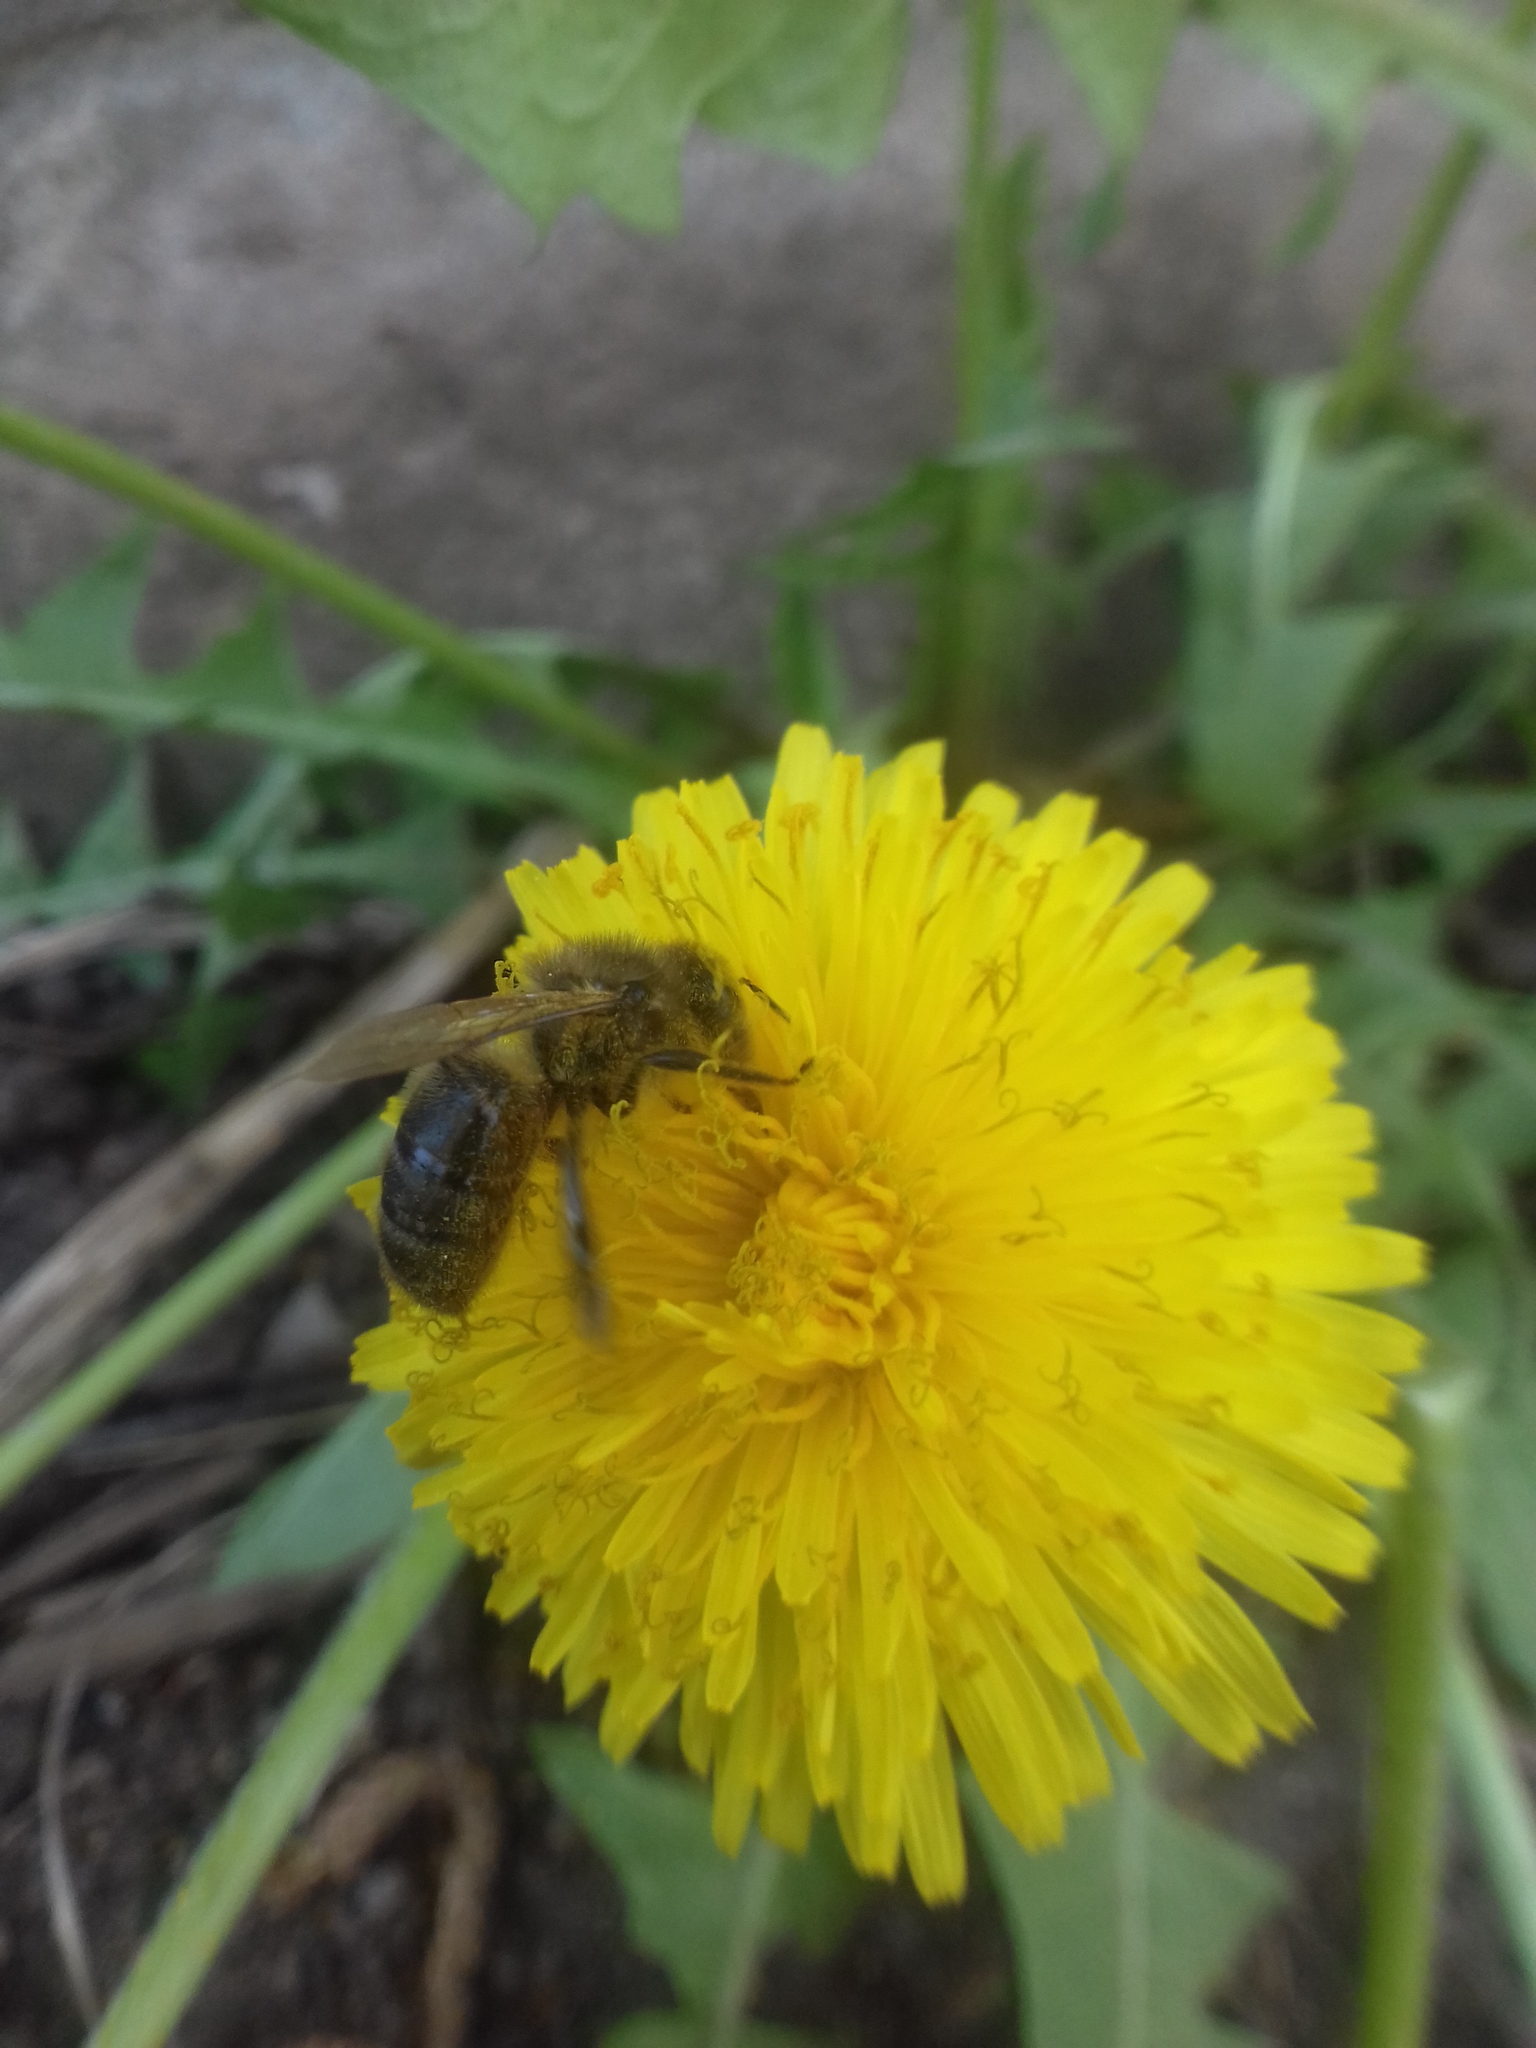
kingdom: Animalia
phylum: Arthropoda
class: Insecta
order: Hymenoptera
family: Apidae
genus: Apis
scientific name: Apis mellifera
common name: Honey bee
